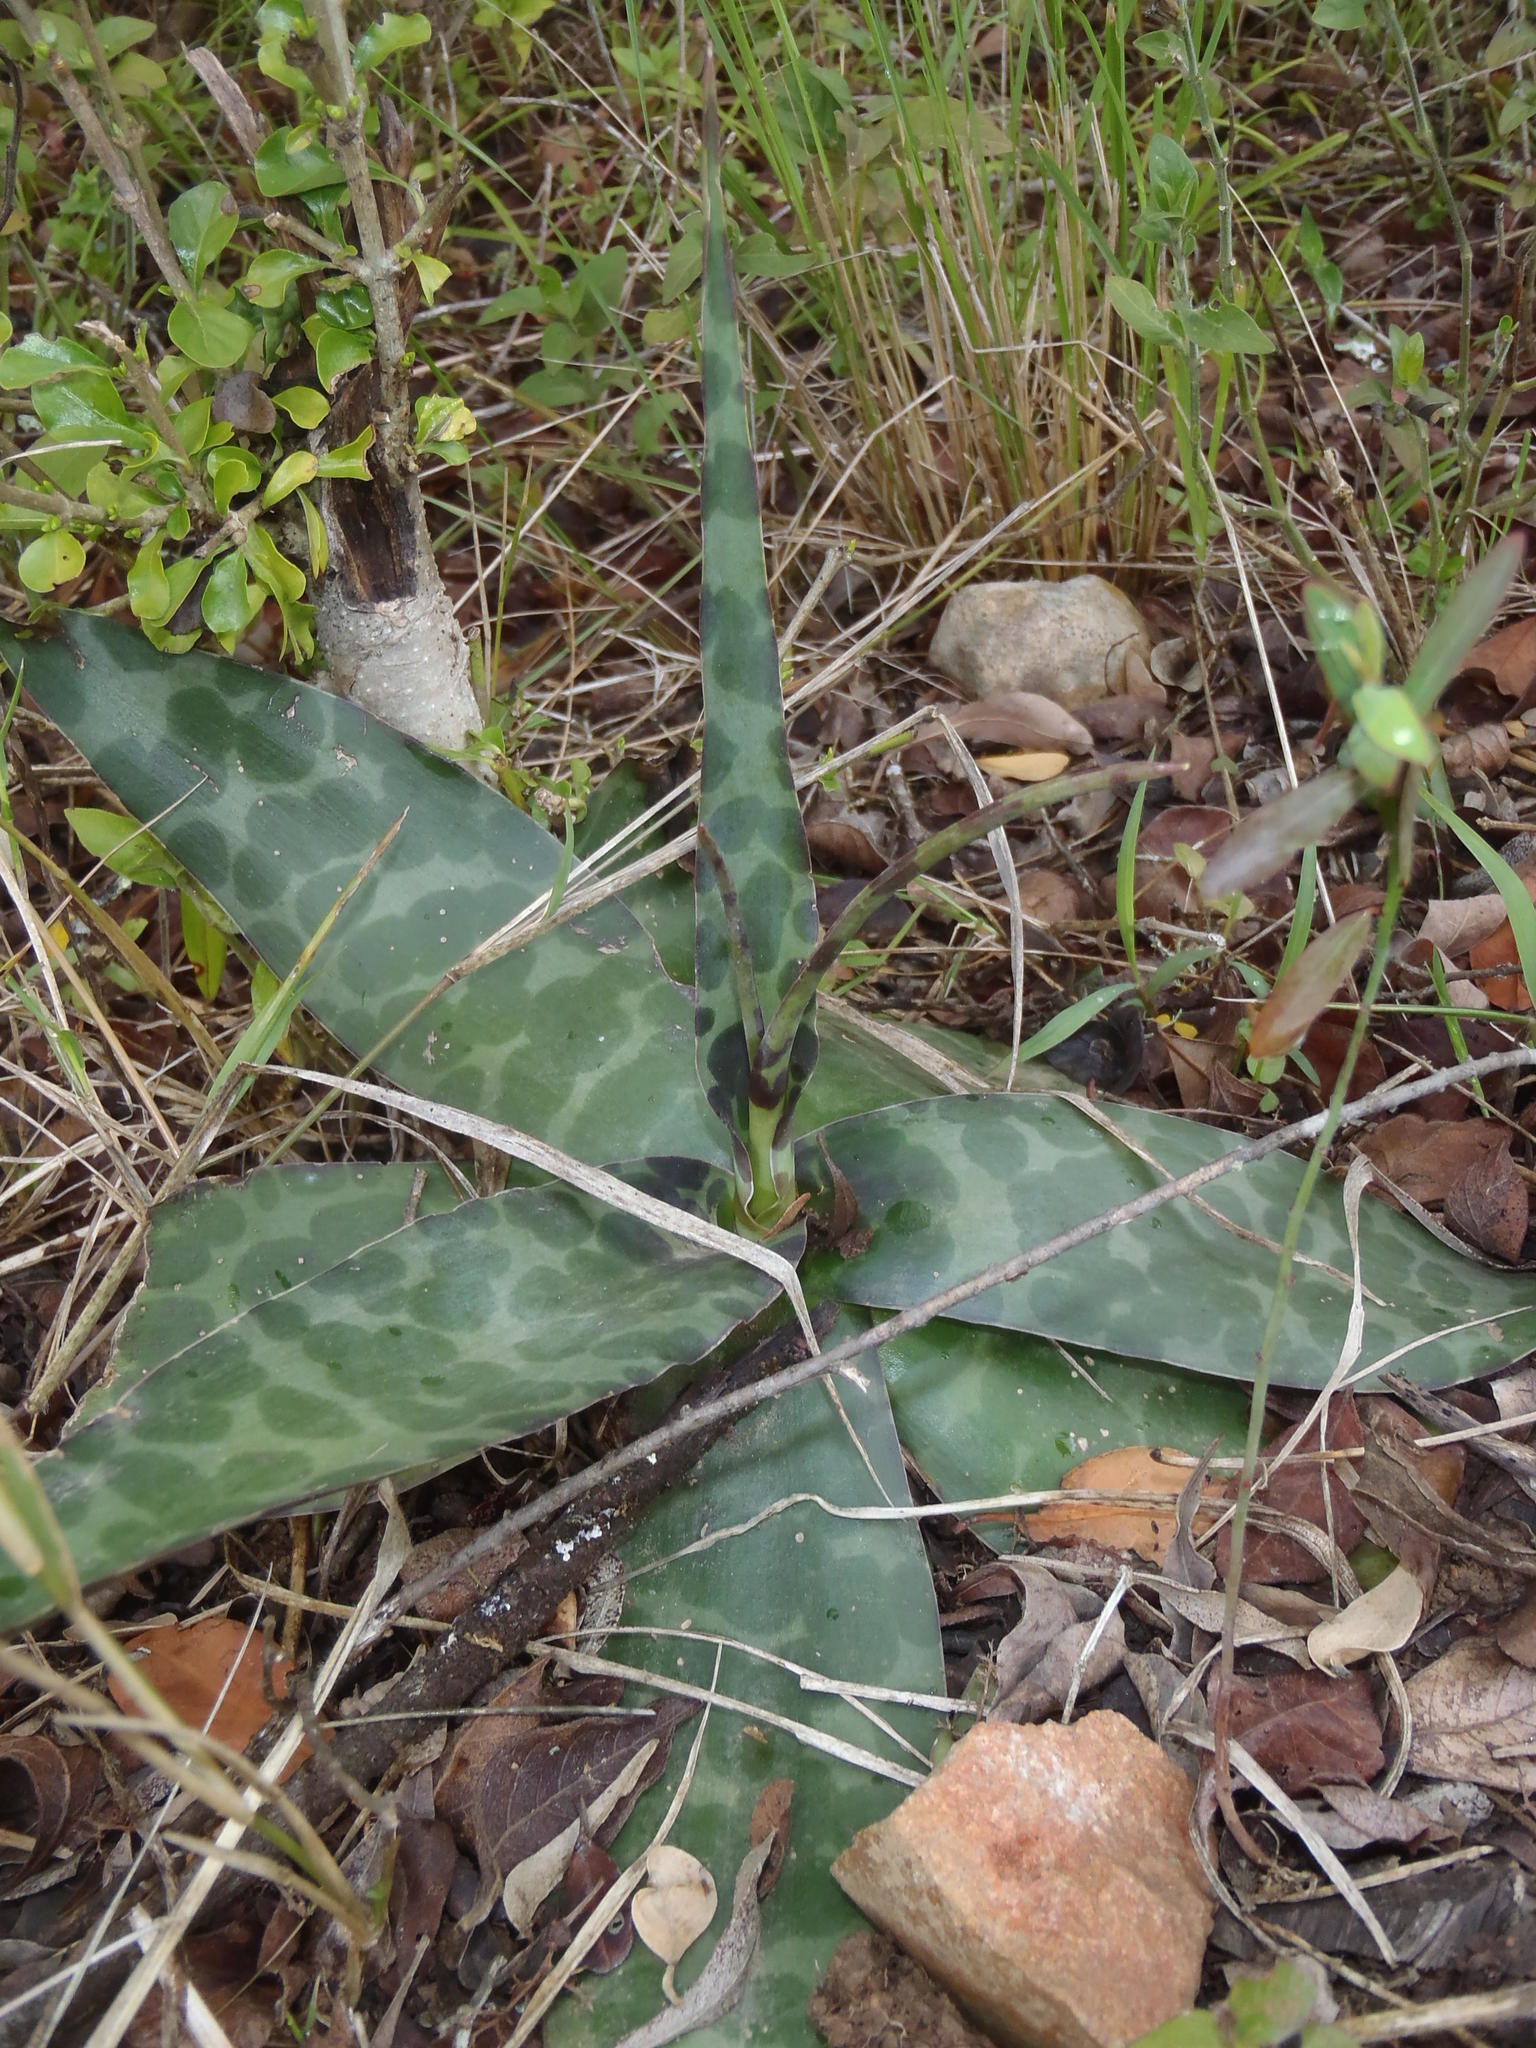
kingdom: Plantae
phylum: Tracheophyta
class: Liliopsida
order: Asparagales
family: Asparagaceae
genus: Ledebouria
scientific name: Ledebouria revoluta
